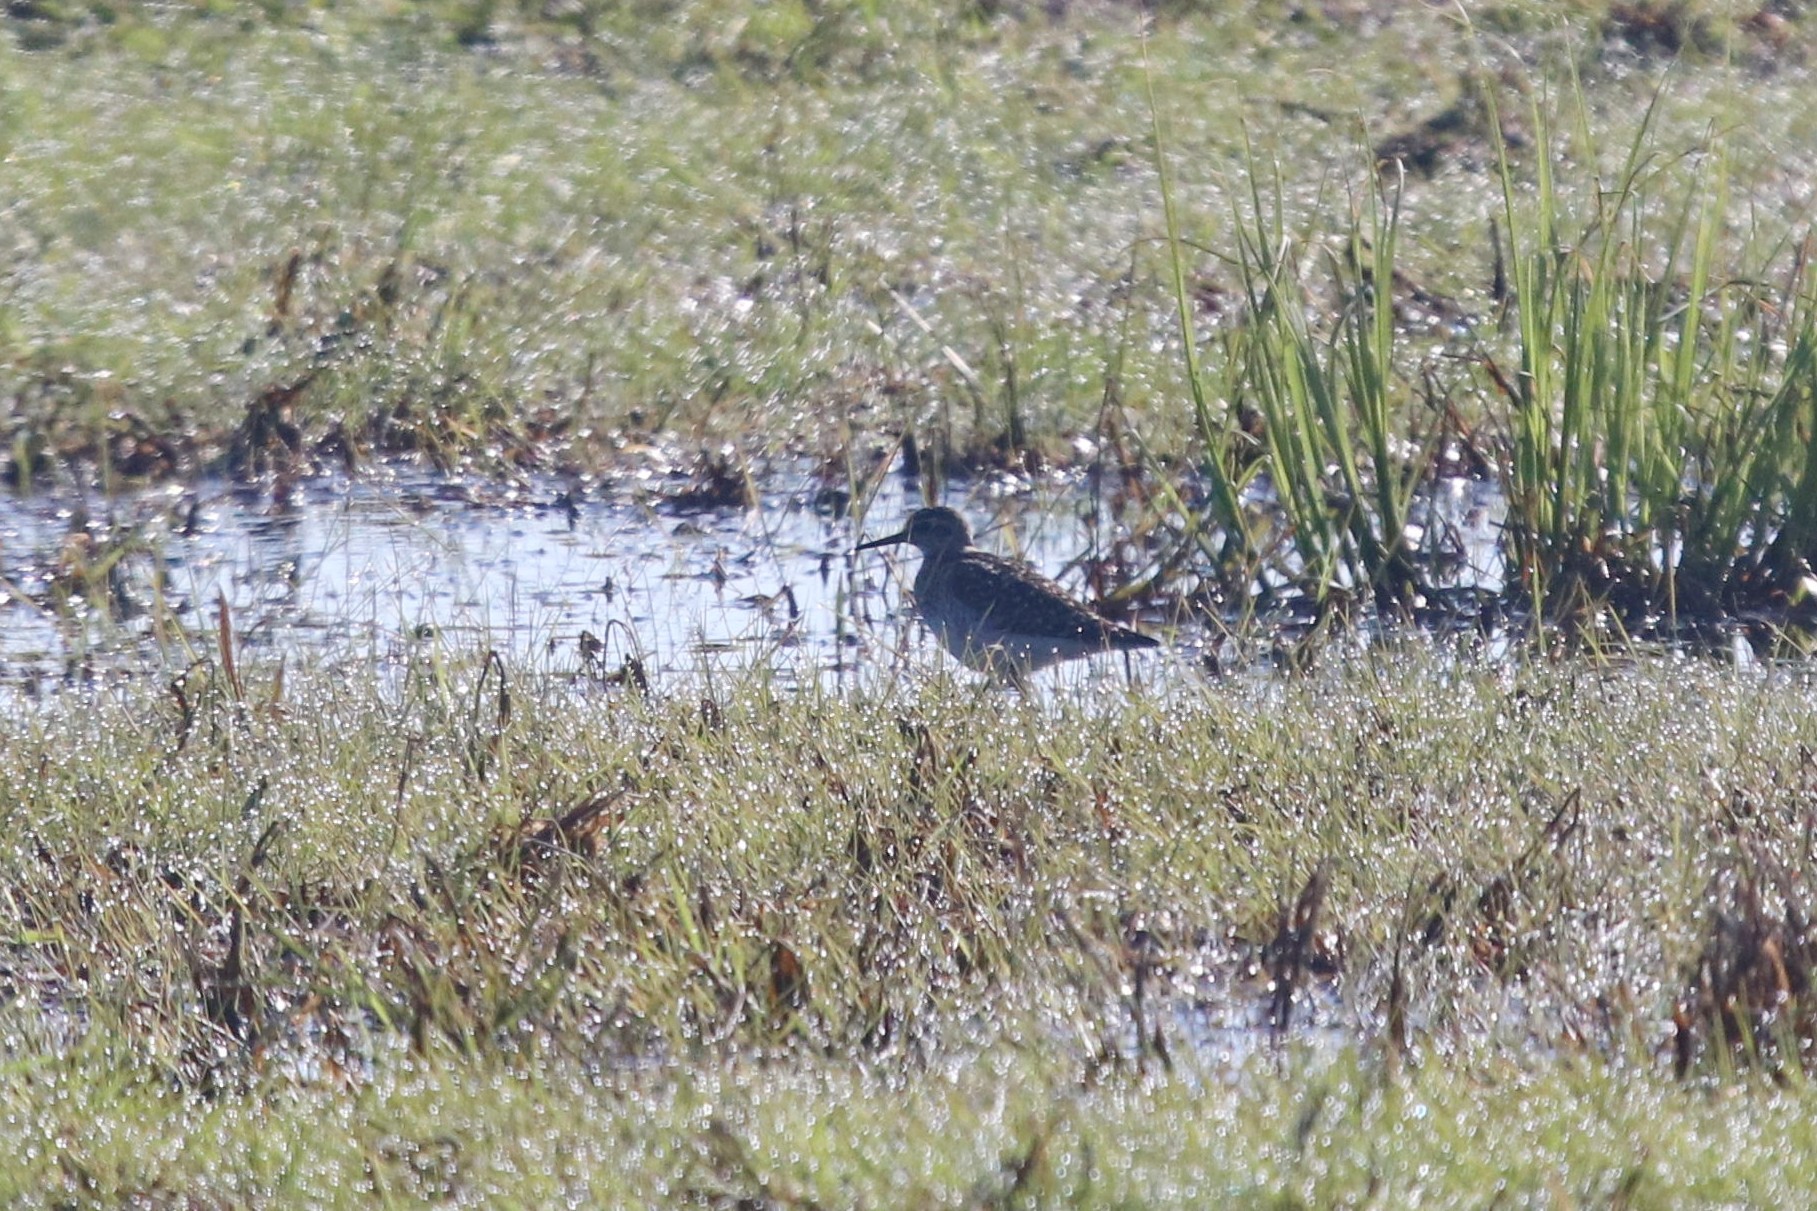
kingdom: Animalia
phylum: Chordata
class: Aves
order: Charadriiformes
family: Scolopacidae
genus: Tringa
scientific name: Tringa glareola
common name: Wood sandpiper
